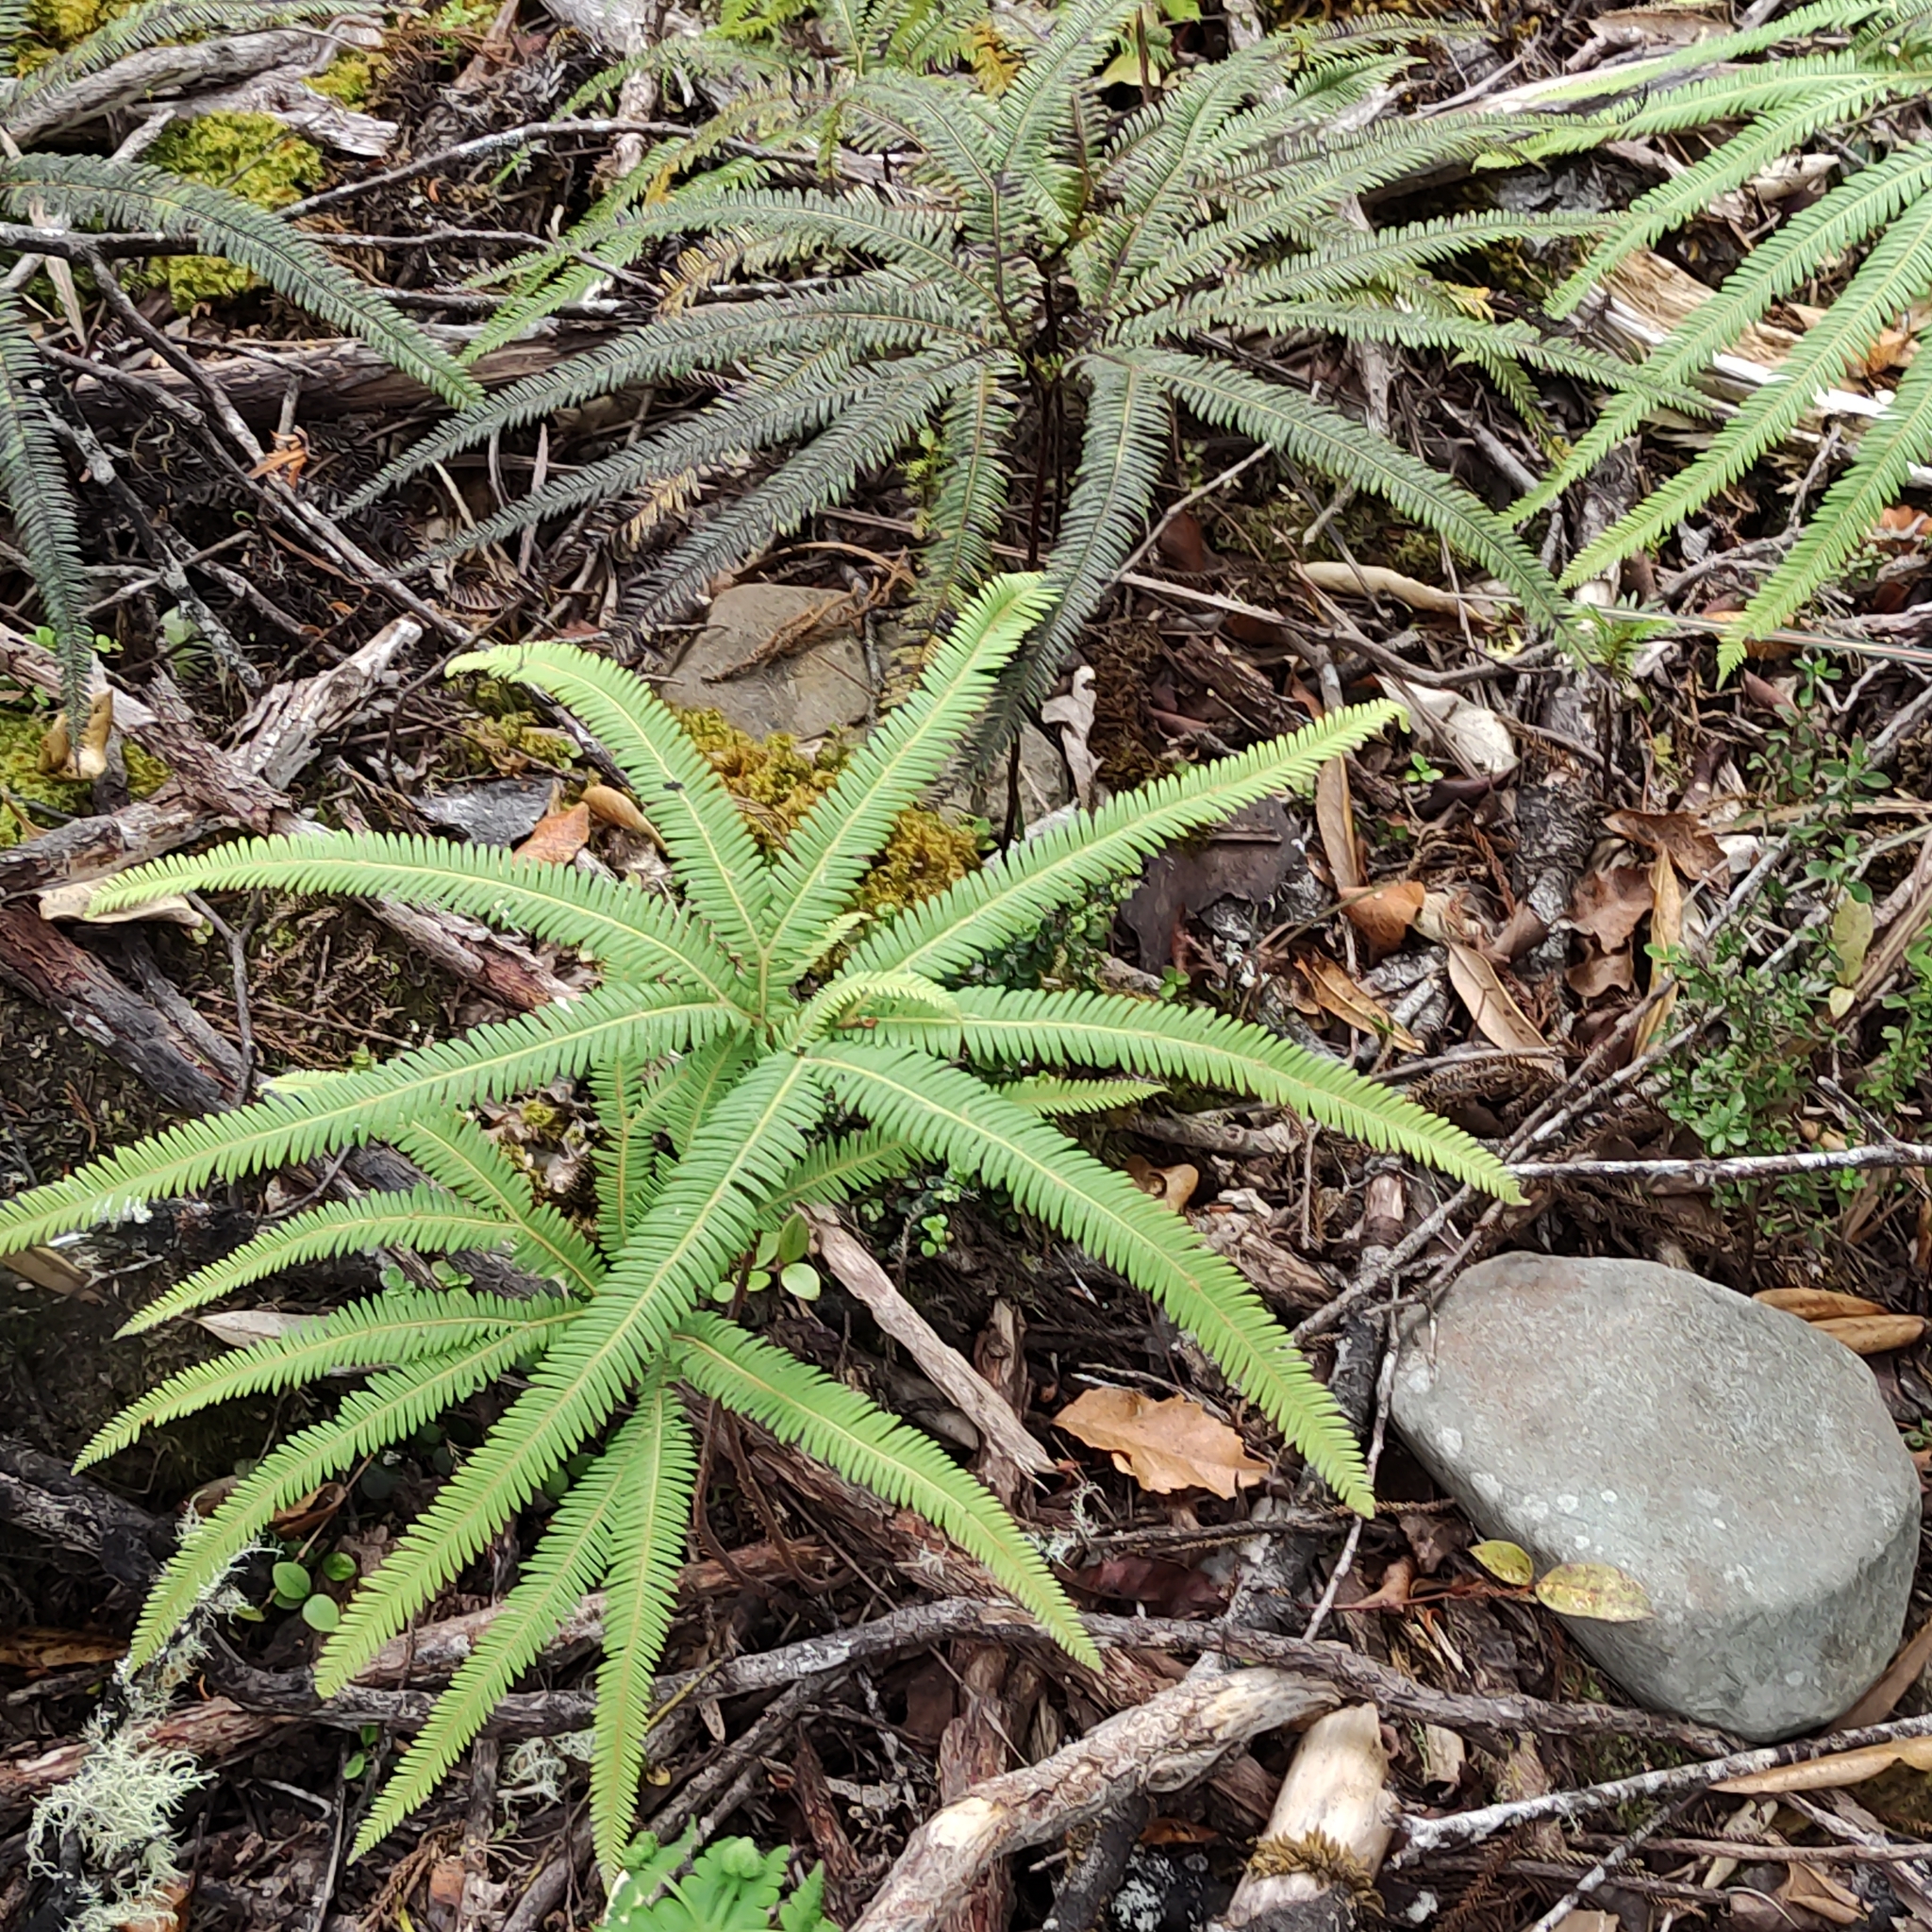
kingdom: Plantae
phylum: Tracheophyta
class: Polypodiopsida
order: Gleicheniales
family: Gleicheniaceae
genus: Sticherus
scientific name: Sticherus cunninghamii
